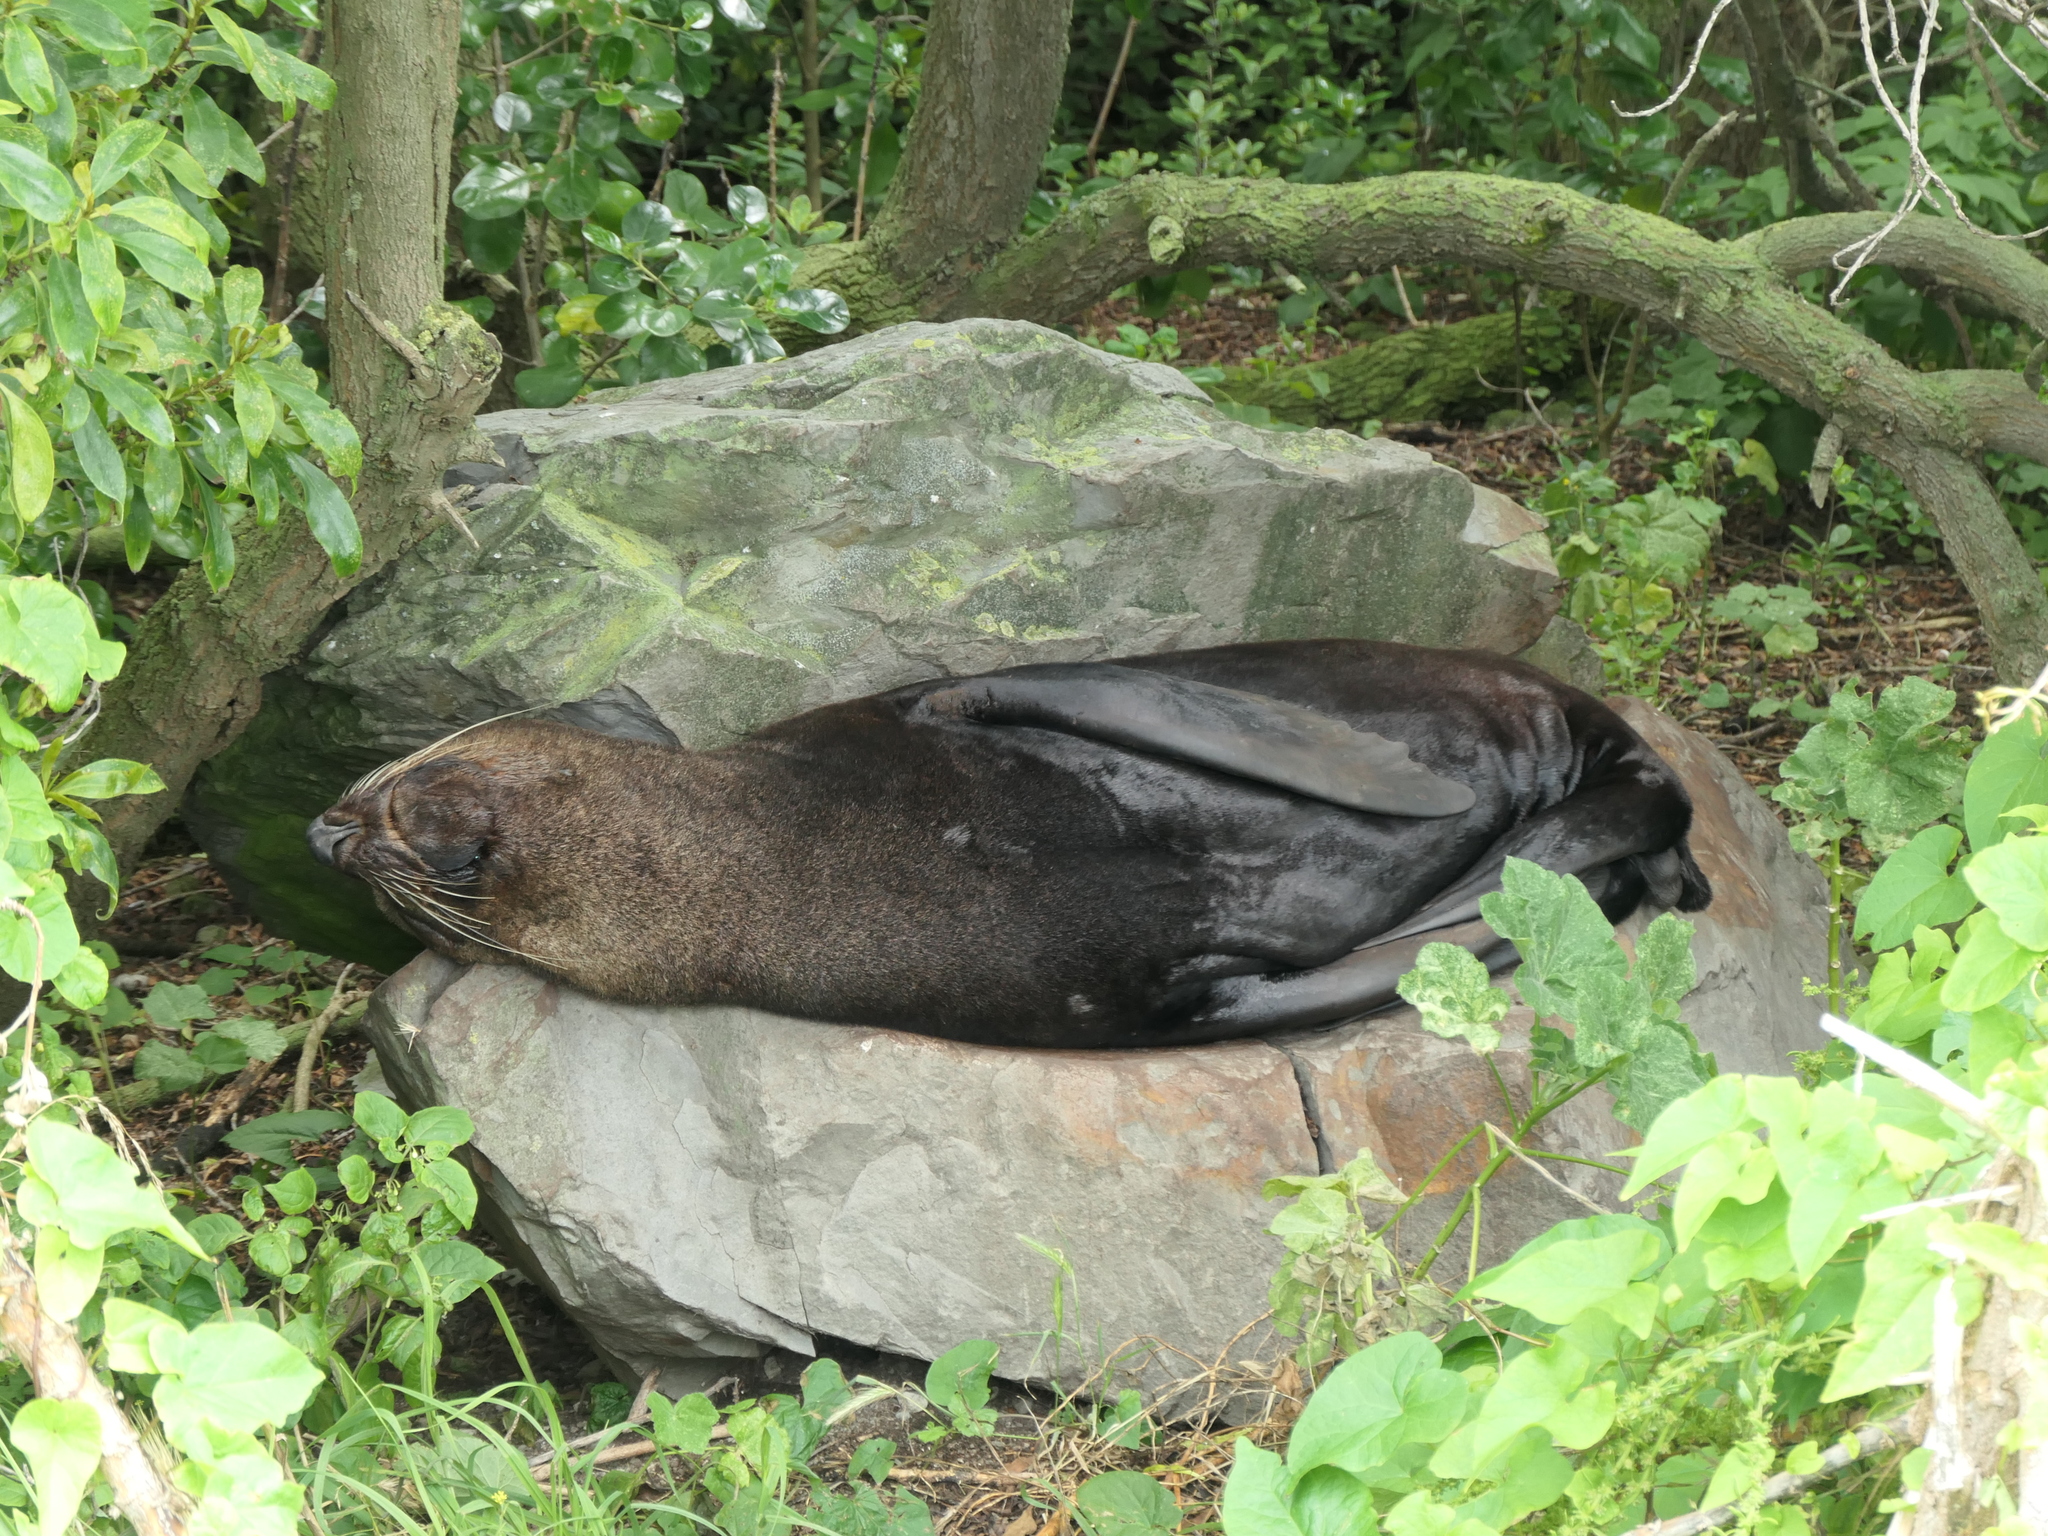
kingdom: Animalia
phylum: Chordata
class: Mammalia
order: Carnivora
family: Otariidae
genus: Arctocephalus
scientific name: Arctocephalus forsteri
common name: New zealand fur seal
